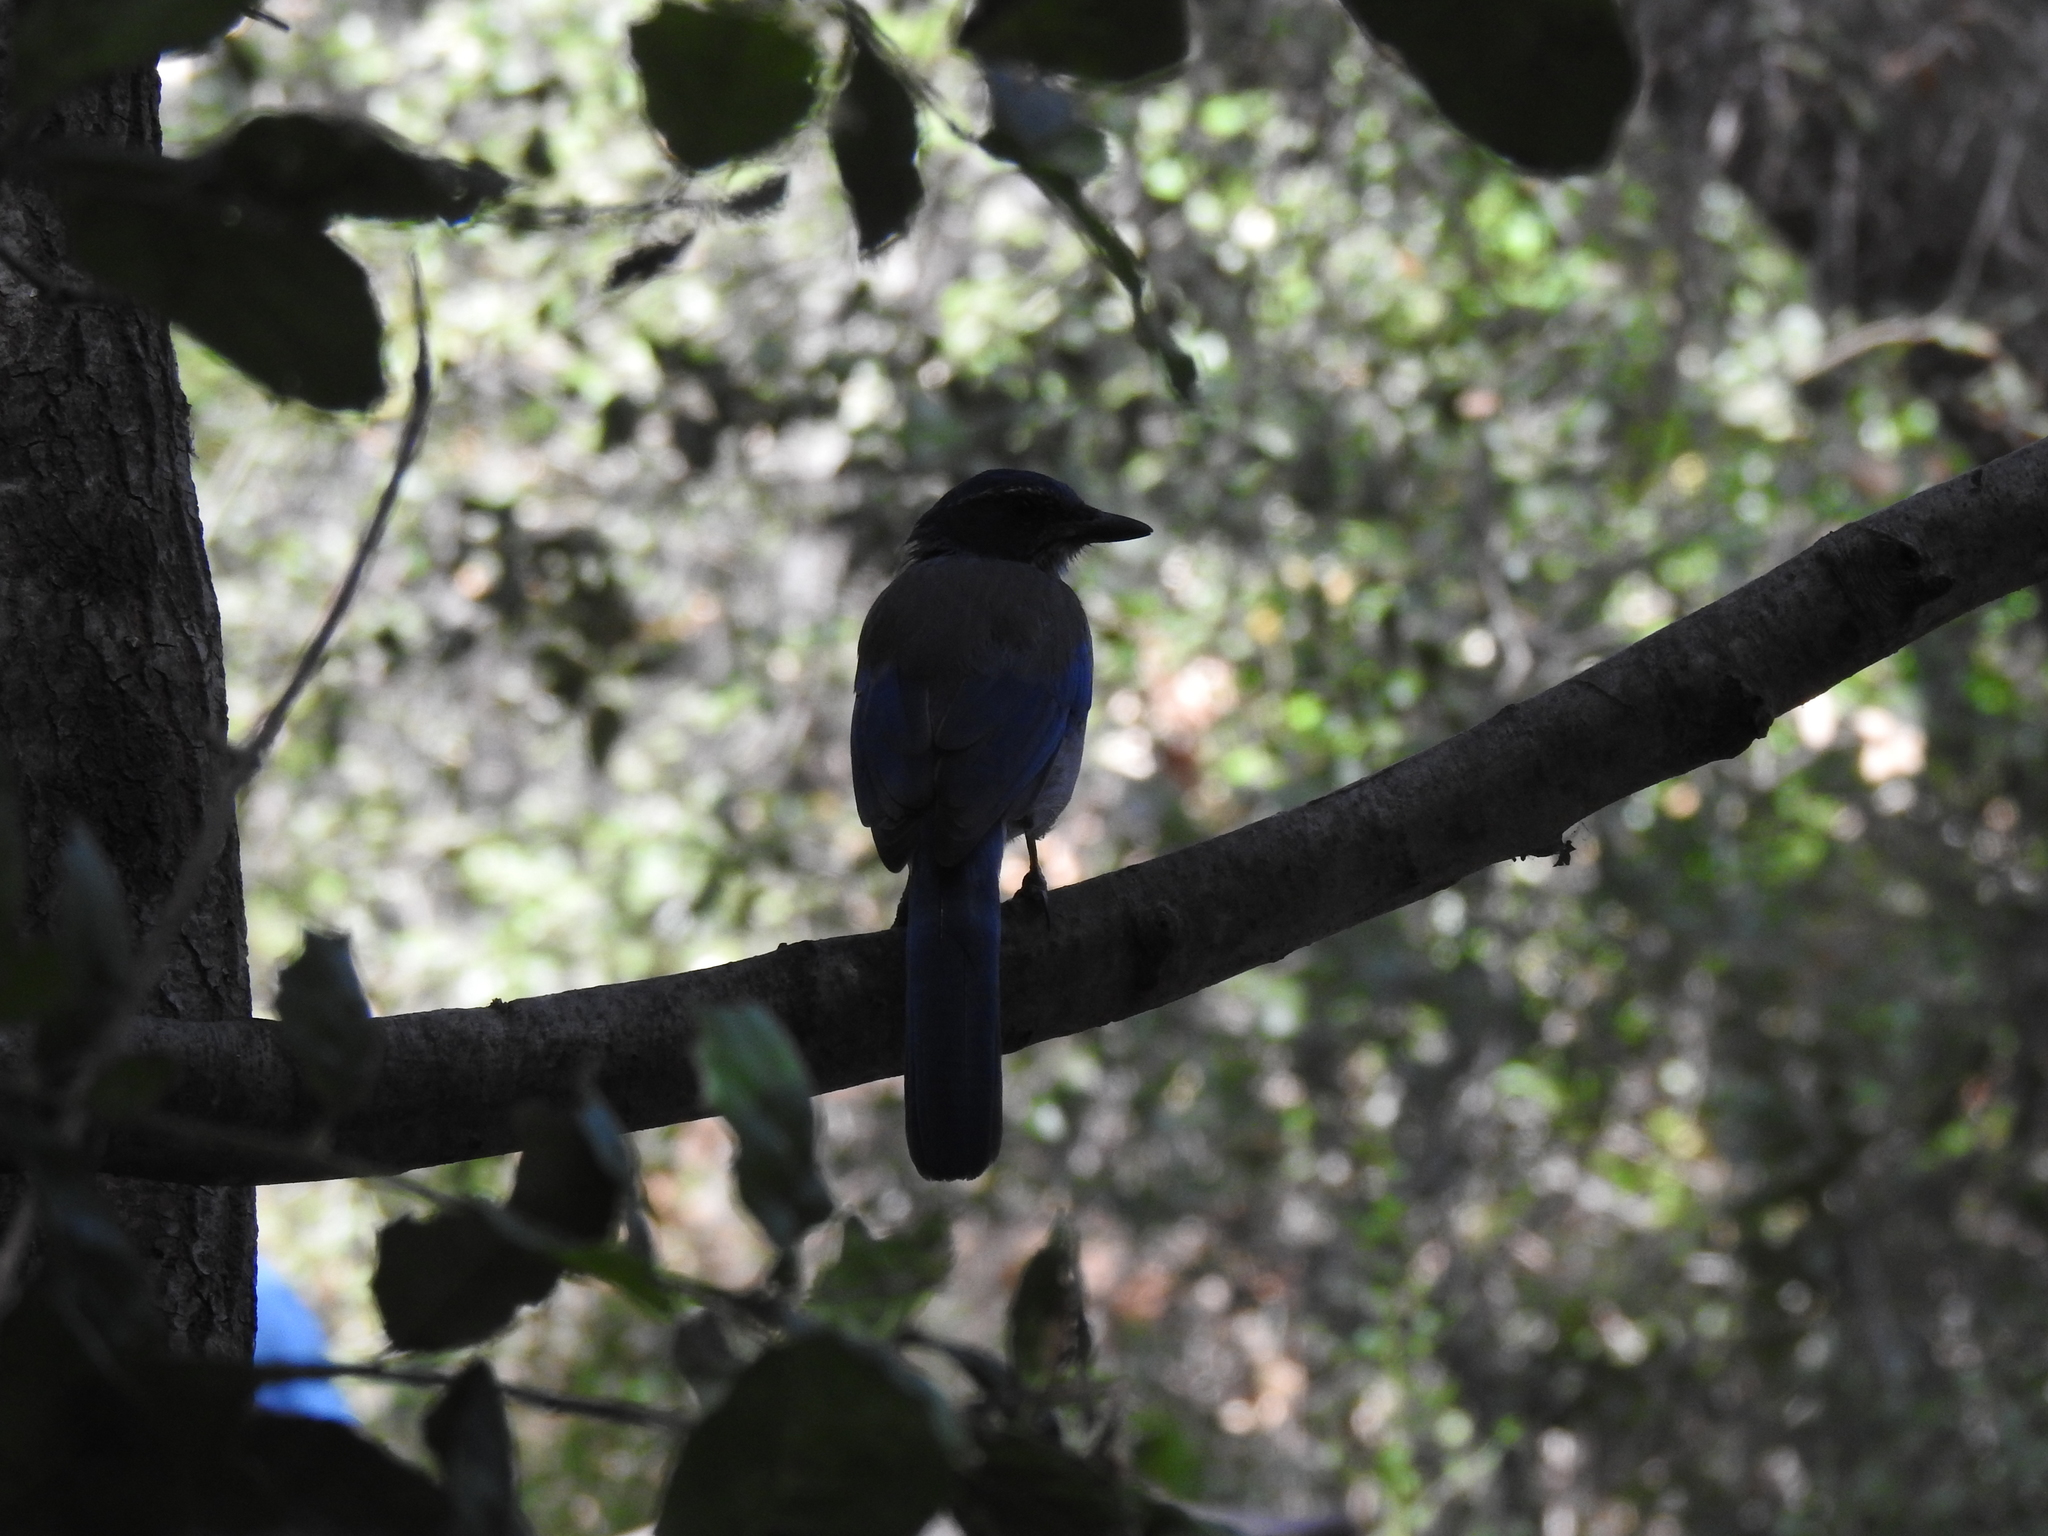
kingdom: Animalia
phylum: Chordata
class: Aves
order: Passeriformes
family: Corvidae
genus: Aphelocoma
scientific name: Aphelocoma californica
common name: California scrub-jay
